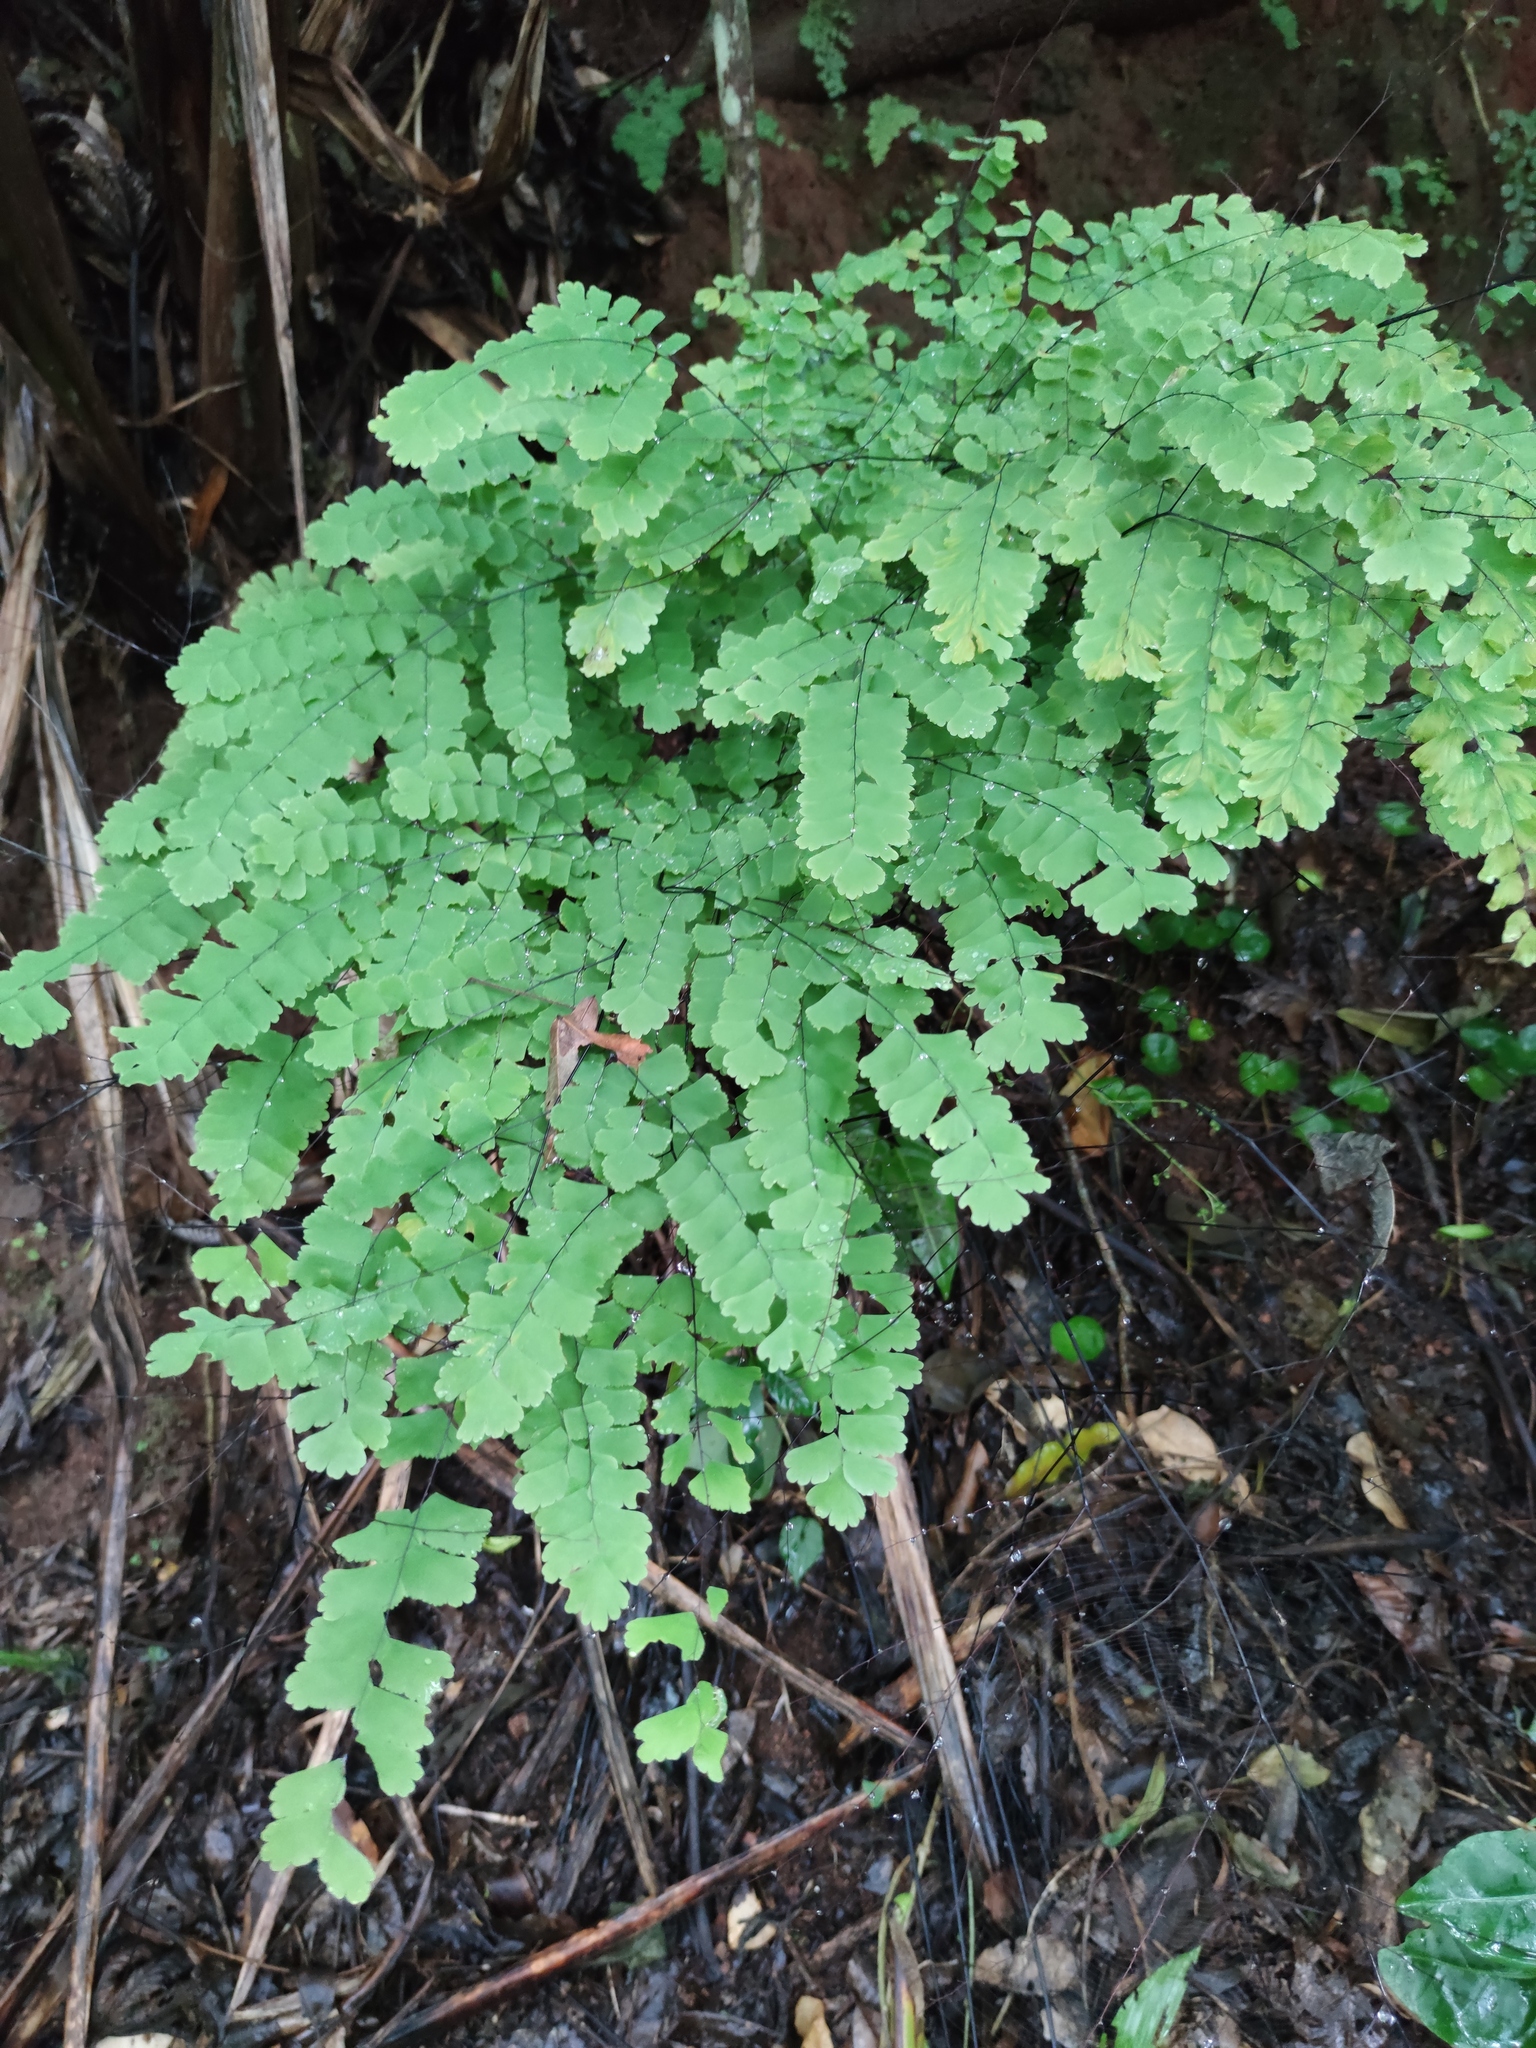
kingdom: Plantae
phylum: Tracheophyta
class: Polypodiopsida
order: Polypodiales
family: Pteridaceae
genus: Adiantum
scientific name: Adiantum amplum
